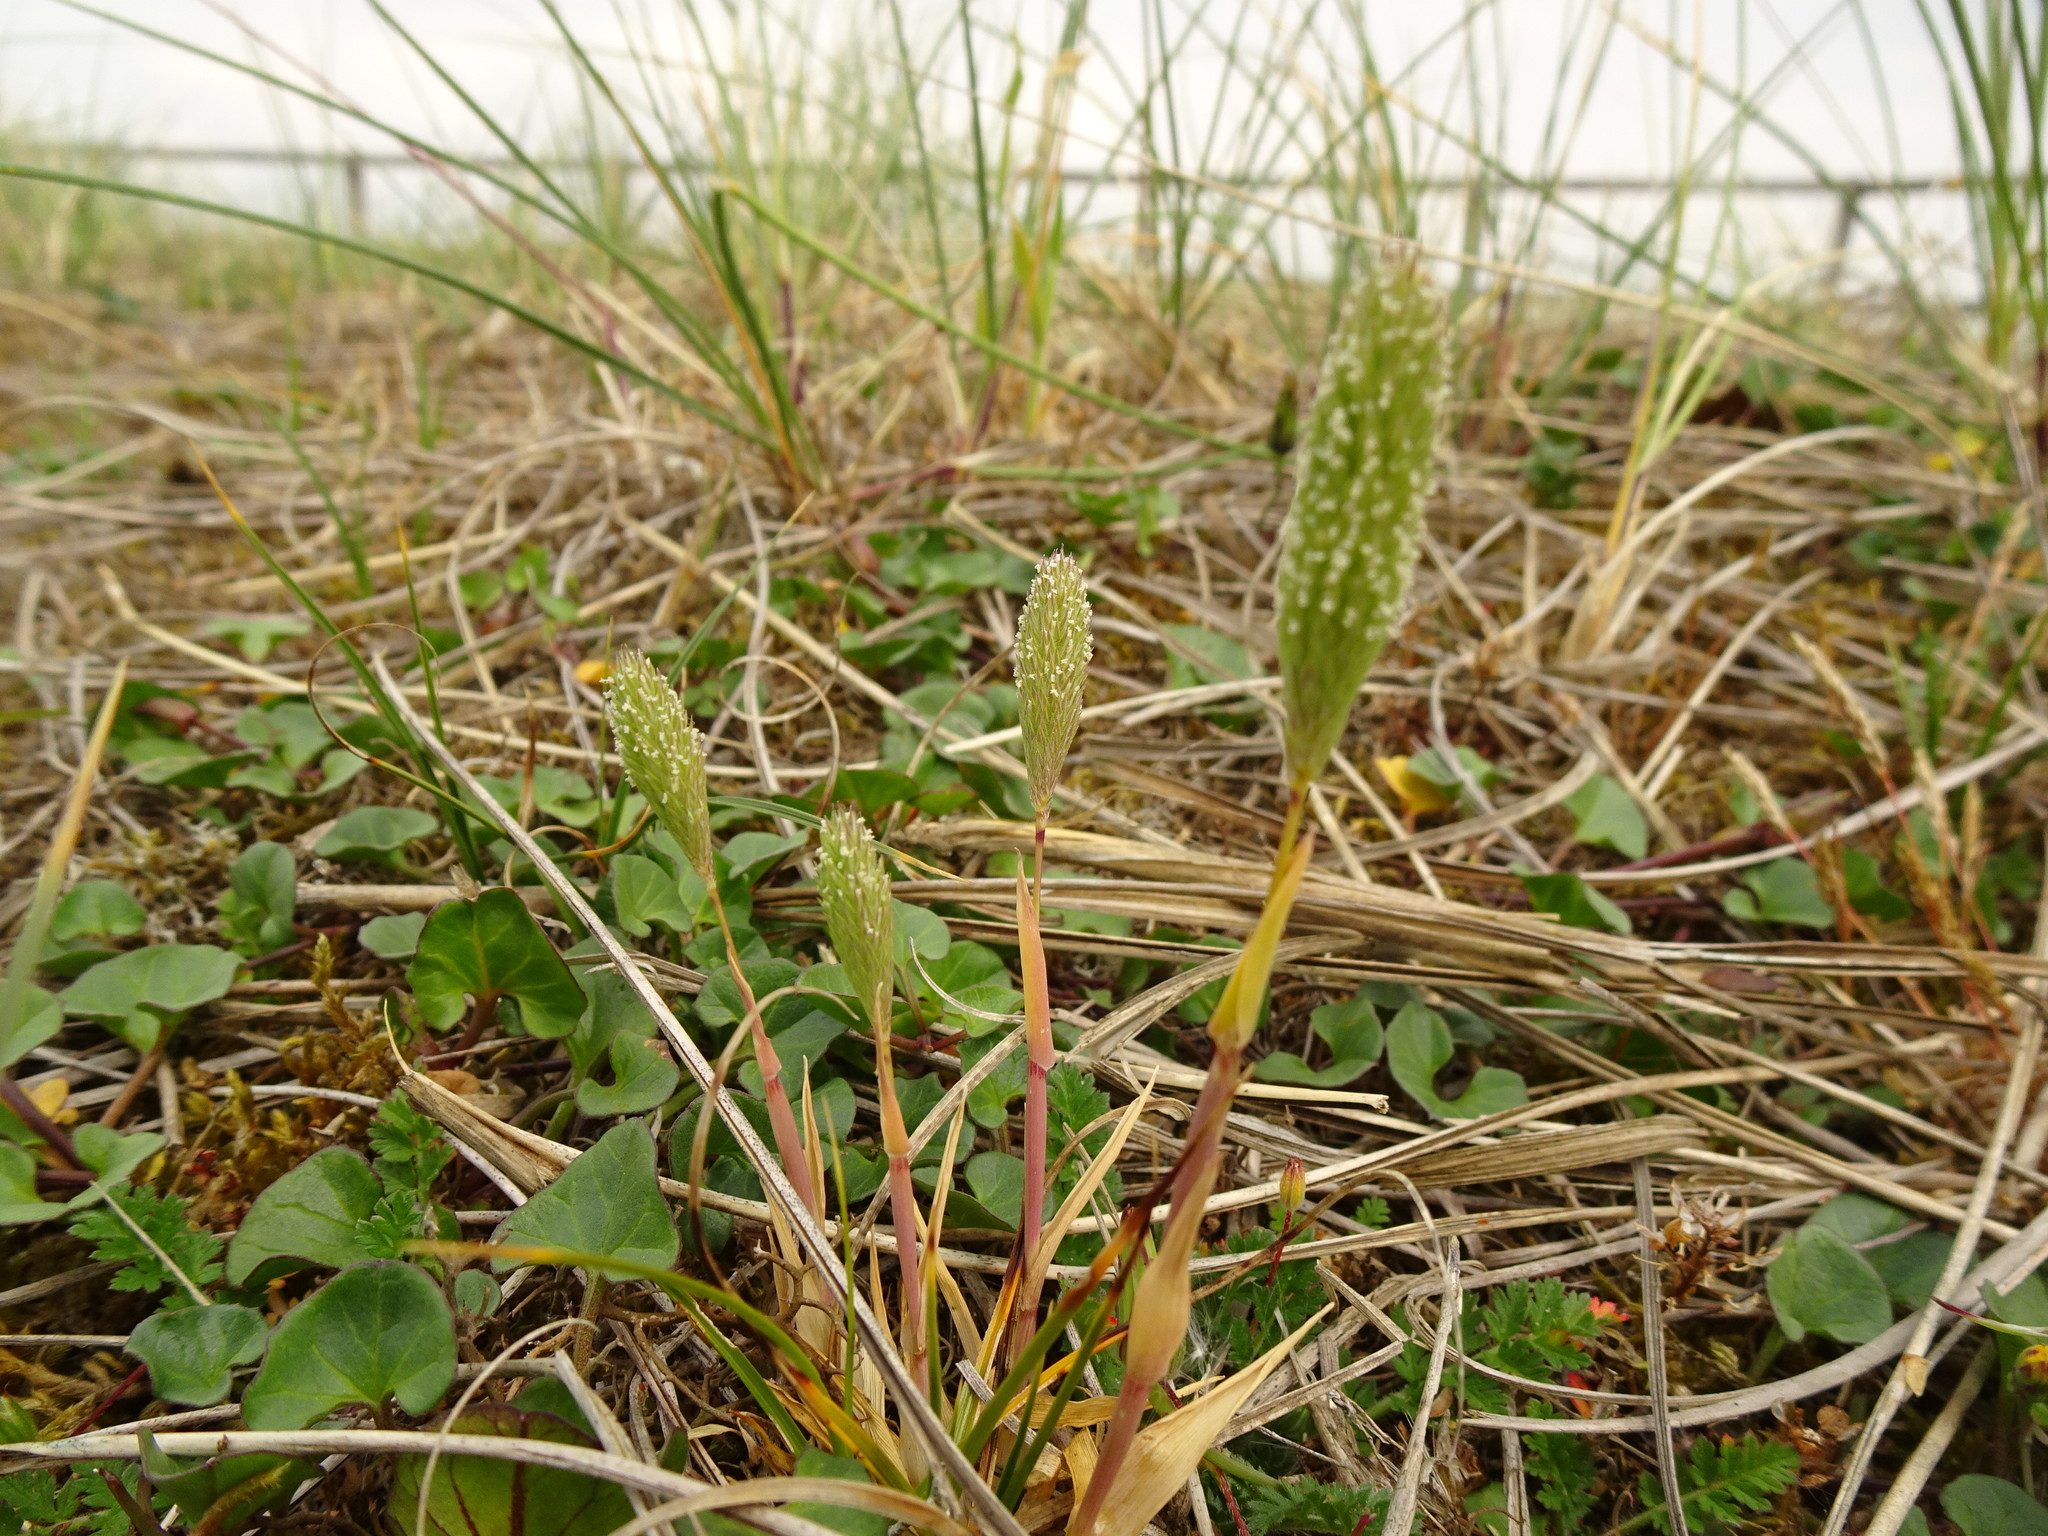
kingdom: Plantae
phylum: Tracheophyta
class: Liliopsida
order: Poales
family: Poaceae
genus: Phleum
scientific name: Phleum arenarium
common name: Sand cat's-tail
